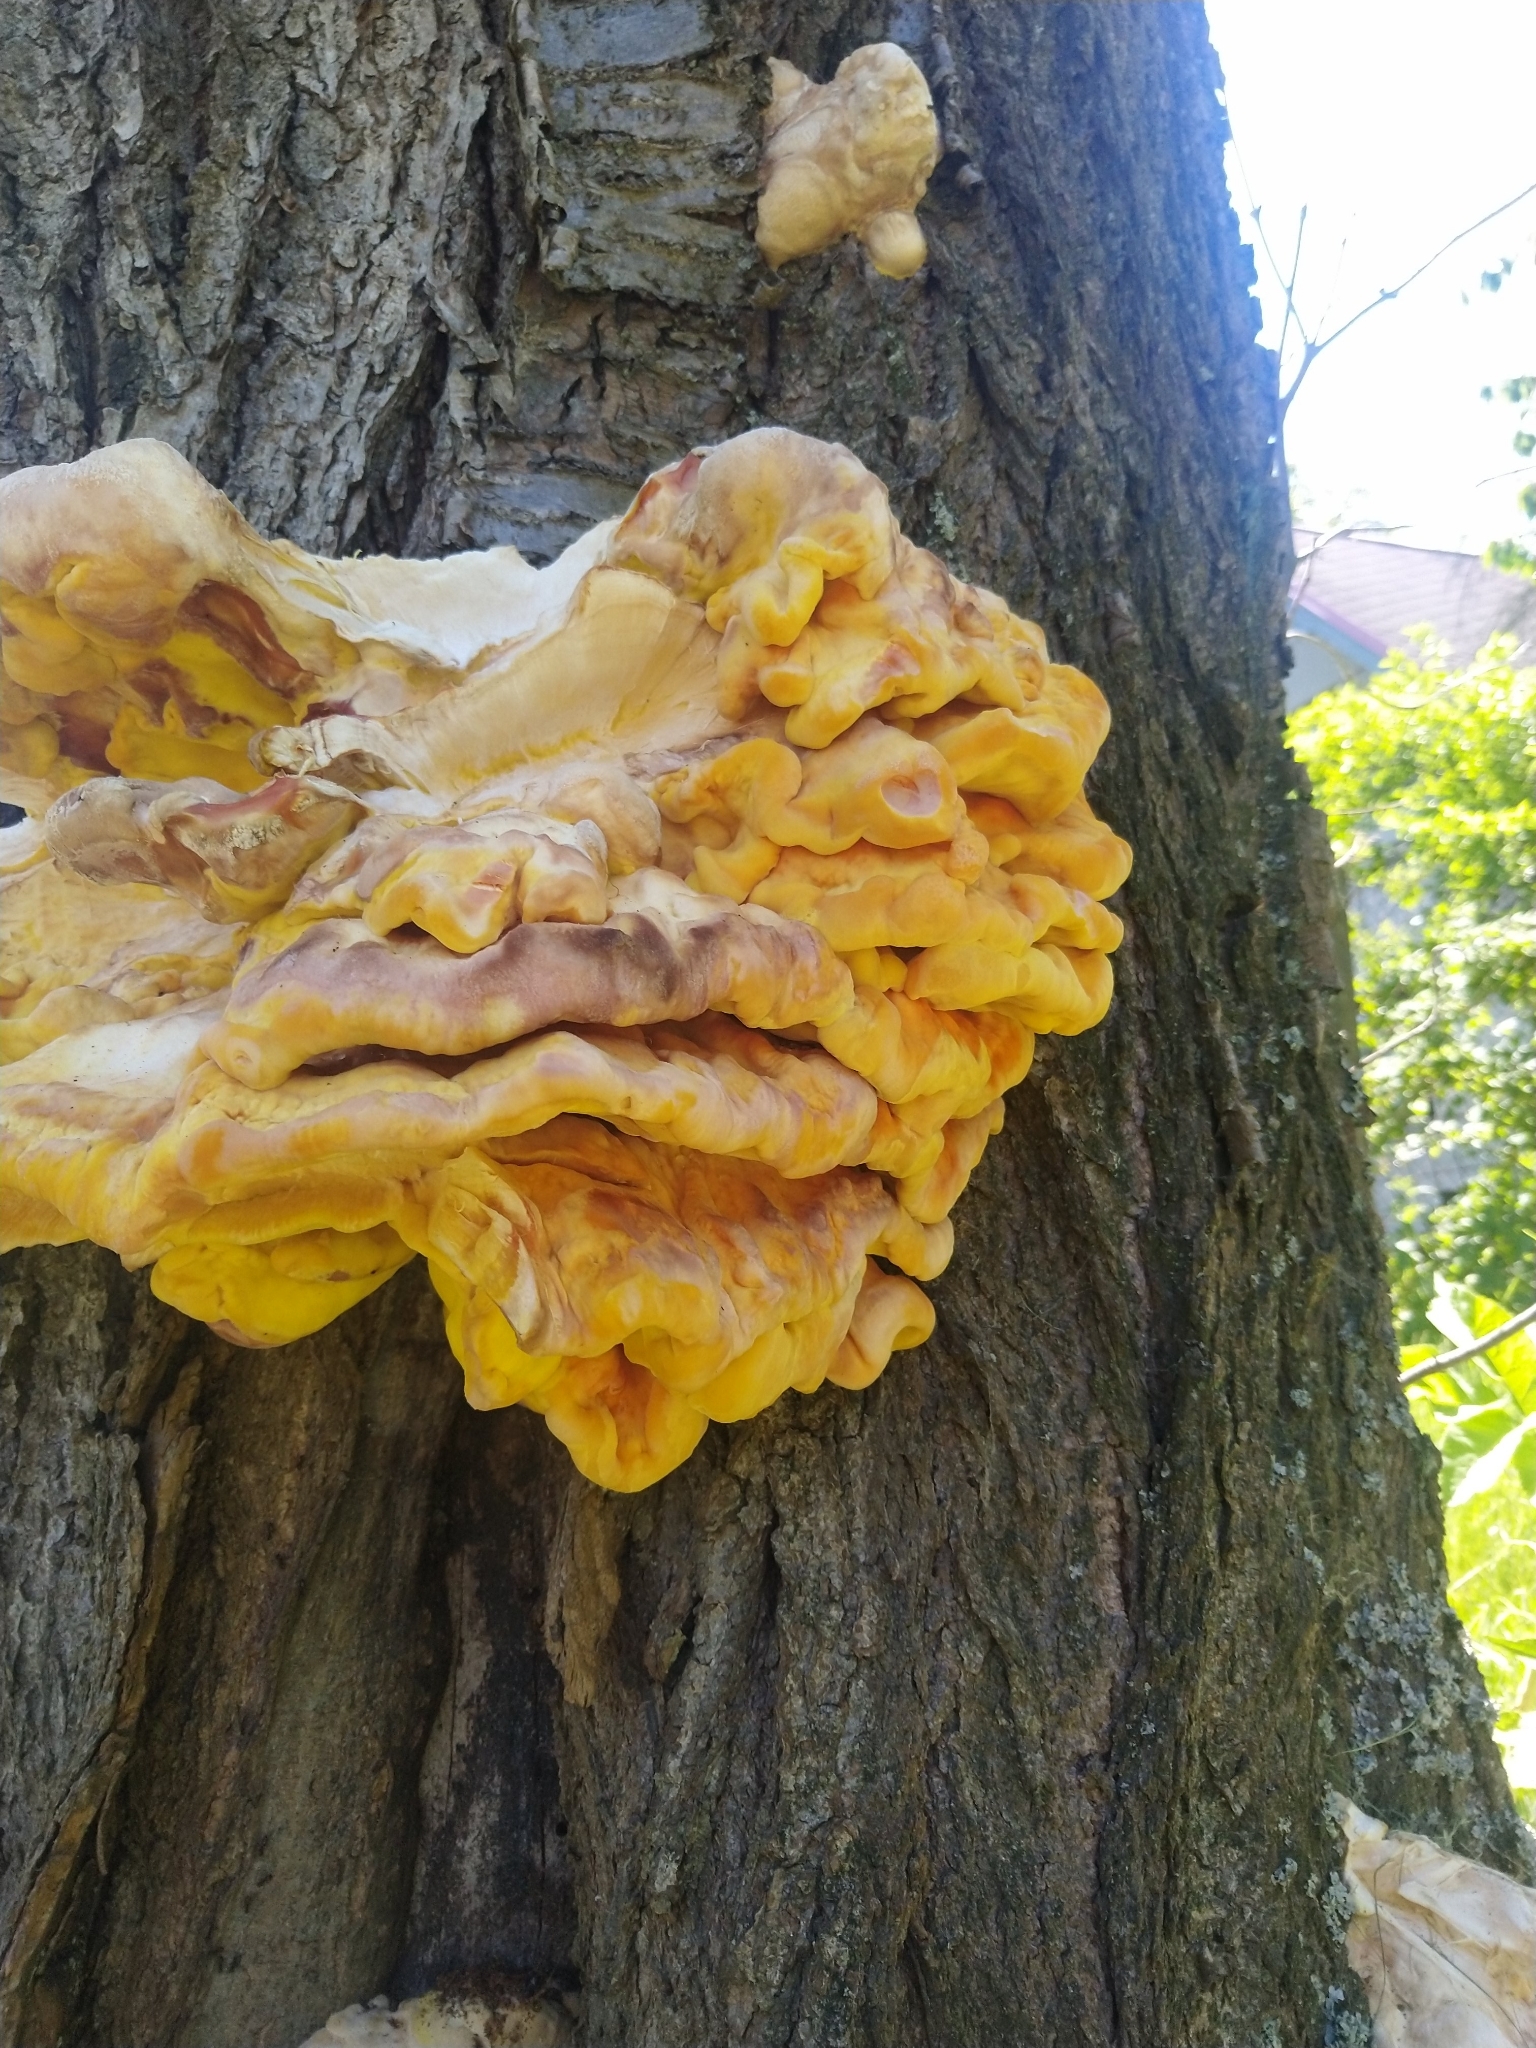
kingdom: Fungi
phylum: Basidiomycota
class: Agaricomycetes
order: Polyporales
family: Laetiporaceae
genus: Laetiporus
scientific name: Laetiporus sulphureus
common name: Chicken of the woods
